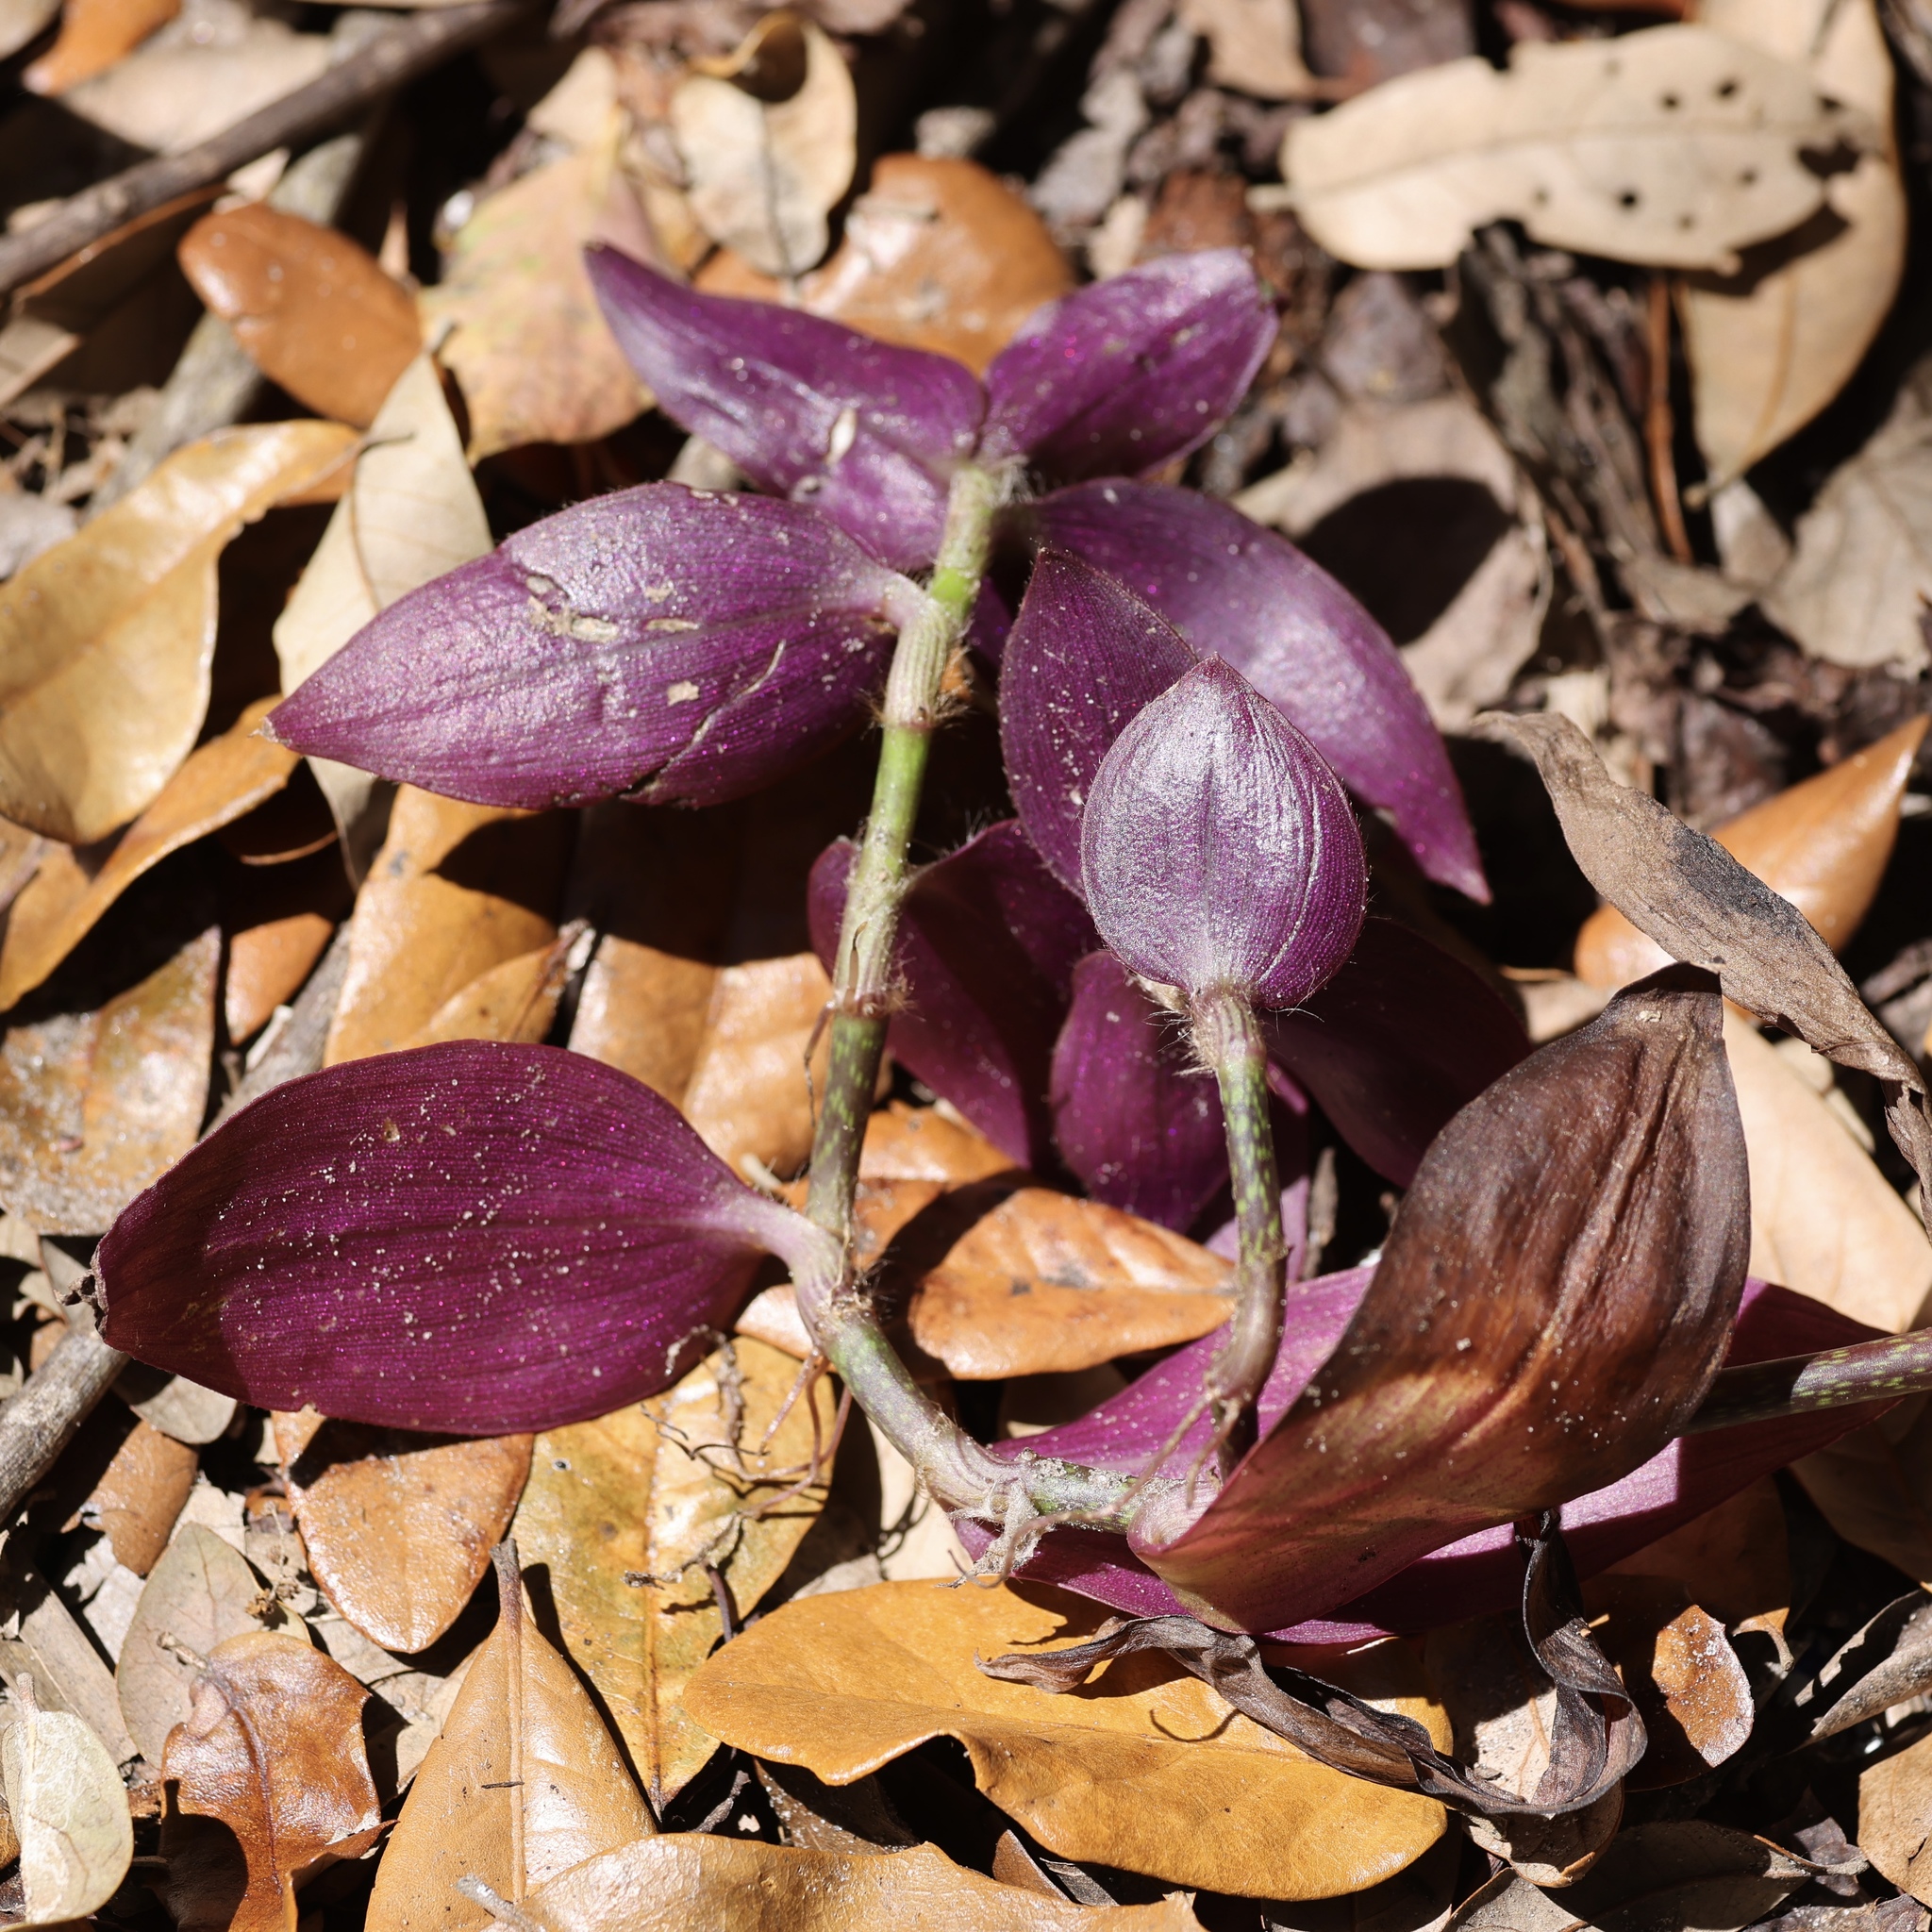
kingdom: Plantae
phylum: Tracheophyta
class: Liliopsida
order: Commelinales
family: Commelinaceae
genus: Tradescantia
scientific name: Tradescantia zebrina
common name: Inchplant
